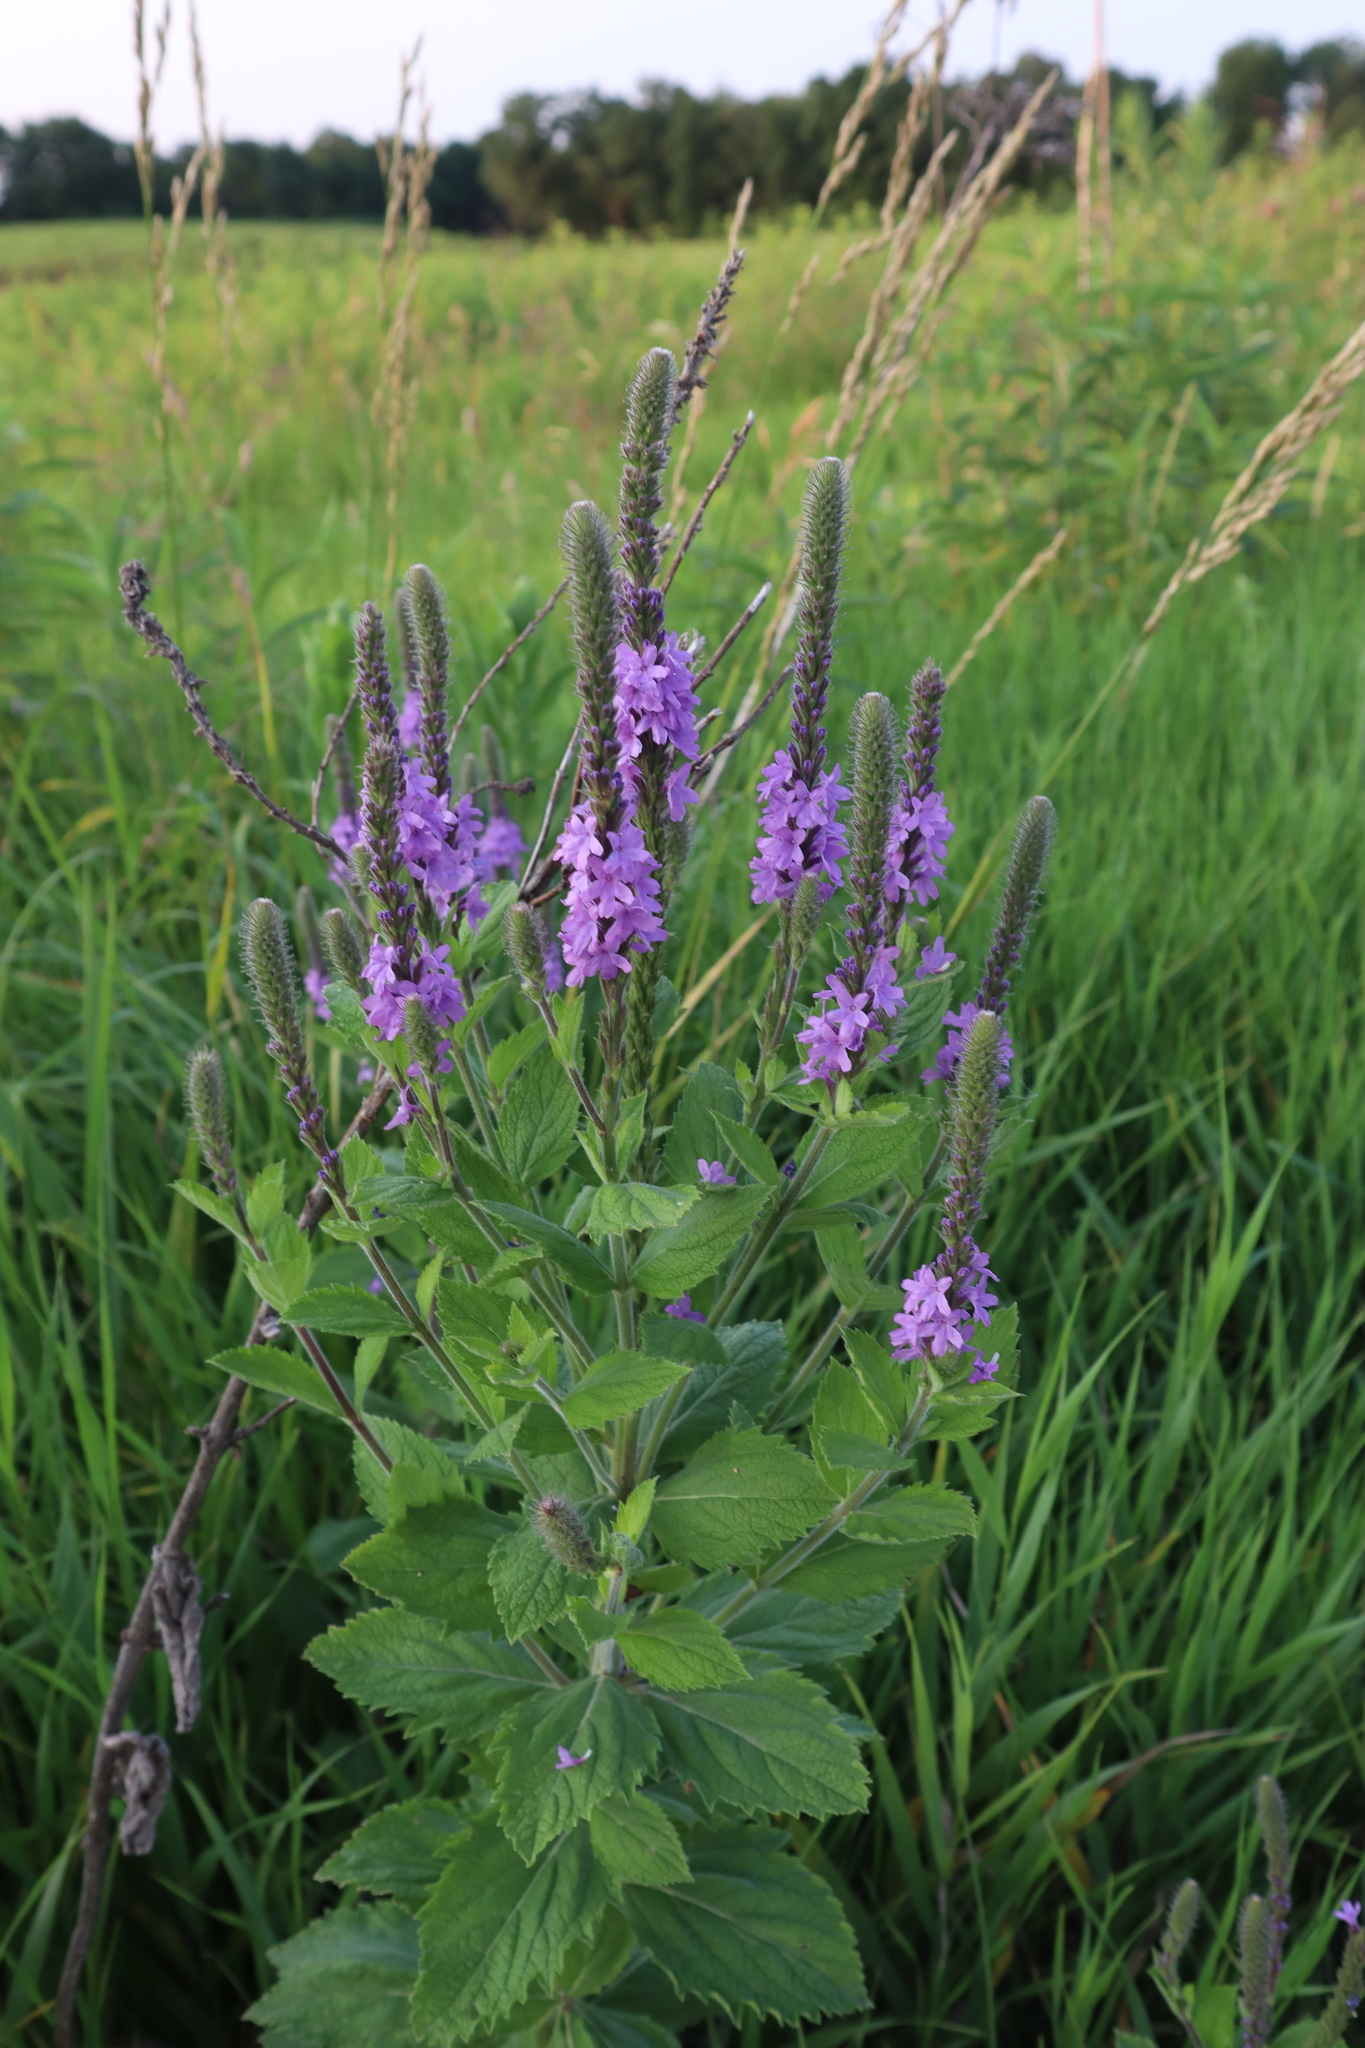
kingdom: Plantae
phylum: Tracheophyta
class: Magnoliopsida
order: Lamiales
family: Verbenaceae
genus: Verbena
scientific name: Verbena stricta
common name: Hoary vervain
